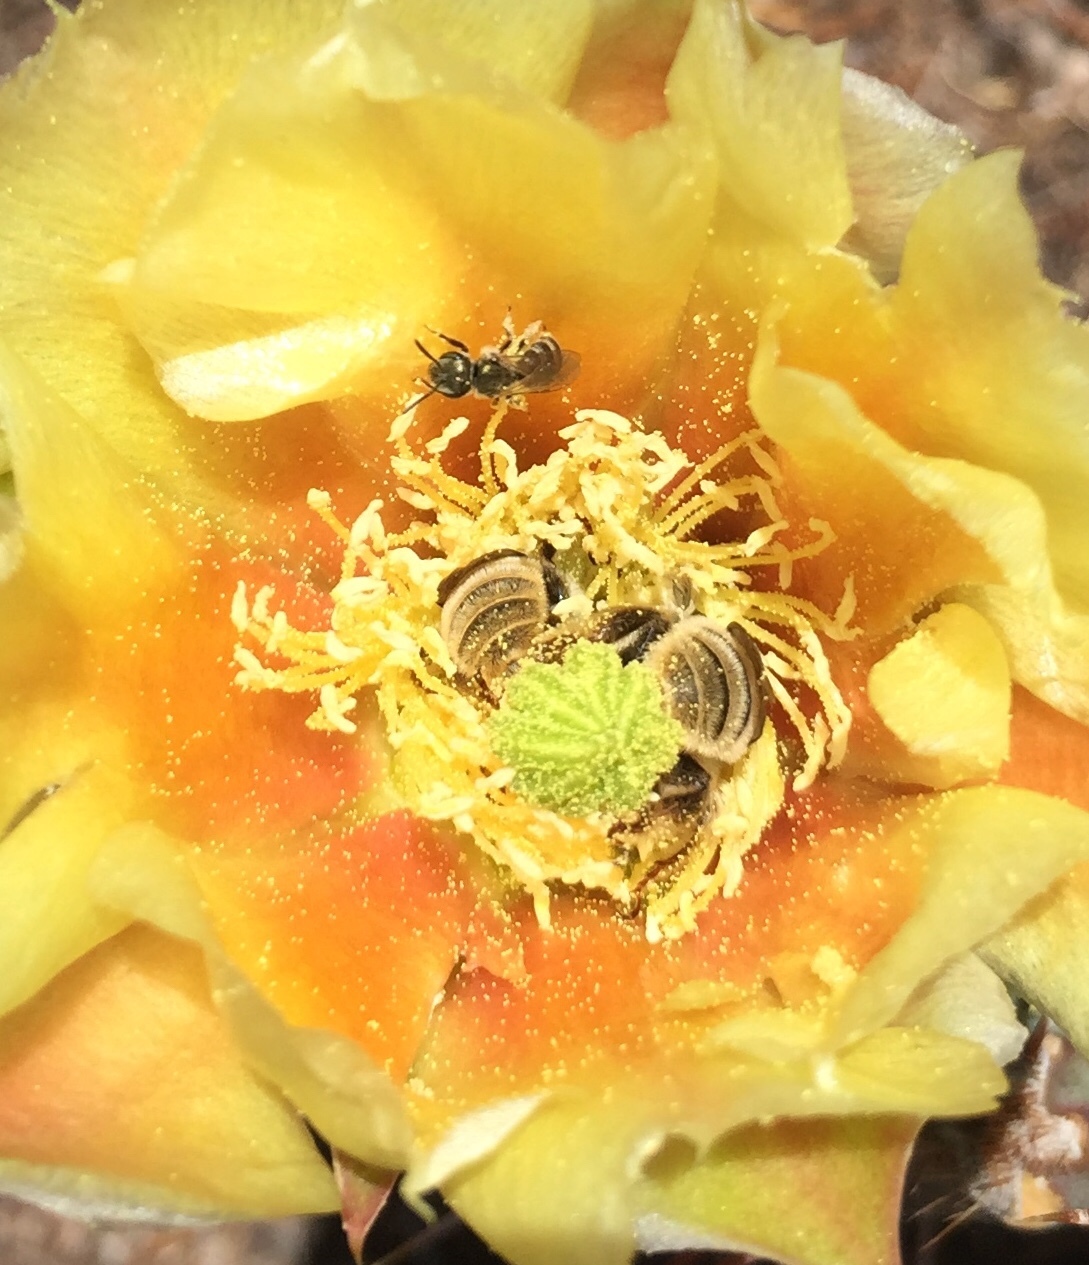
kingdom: Animalia
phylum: Arthropoda
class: Insecta
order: Hymenoptera
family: Apidae
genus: Diadasia
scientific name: Diadasia
